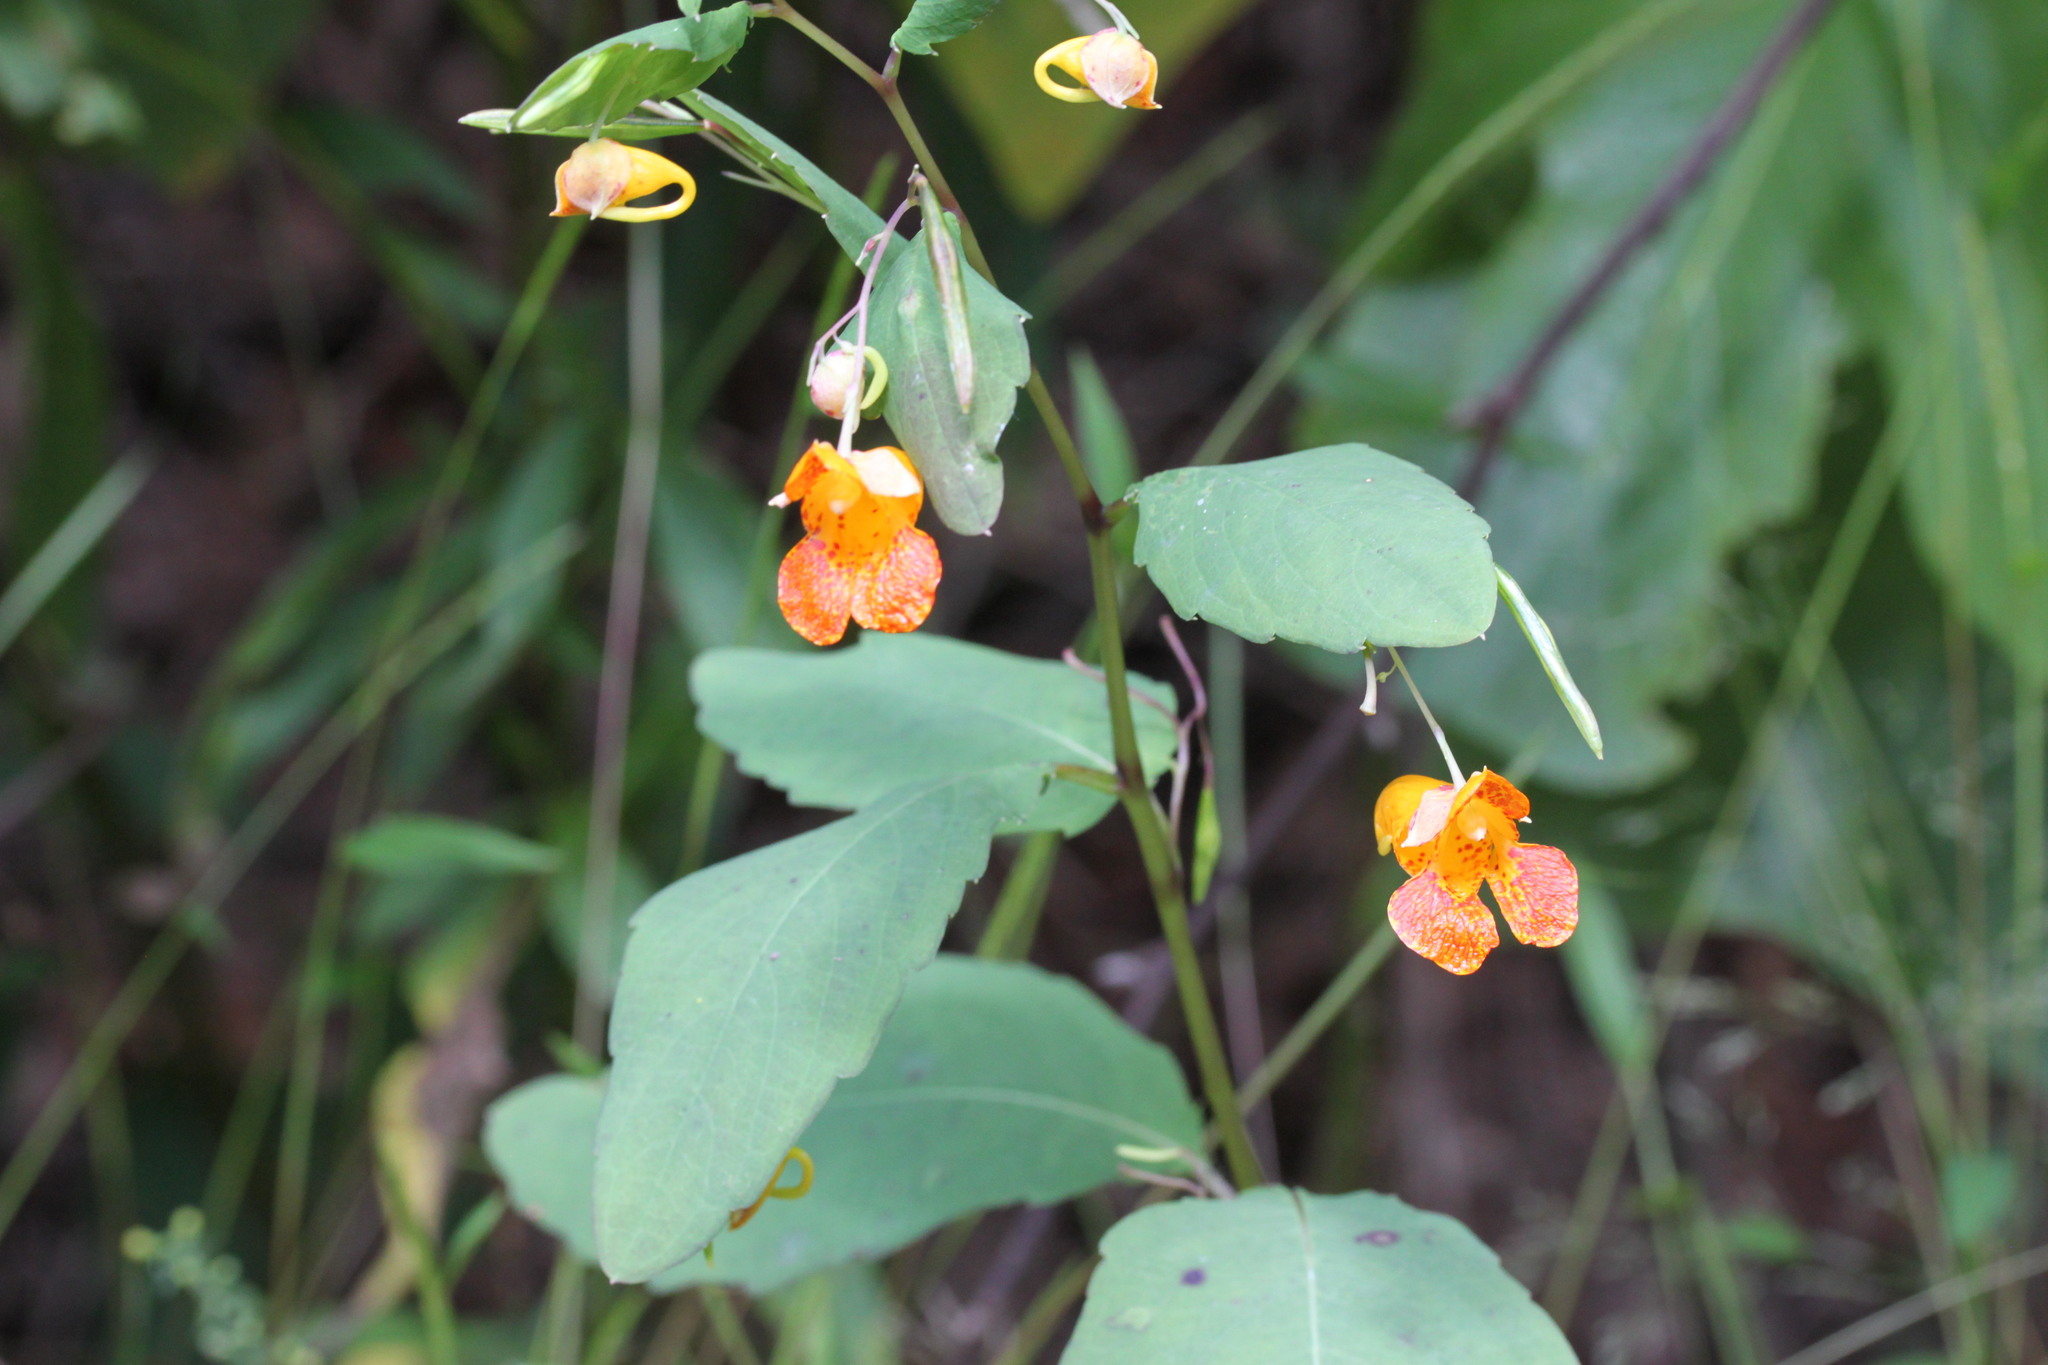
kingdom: Plantae
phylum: Tracheophyta
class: Magnoliopsida
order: Ericales
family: Balsaminaceae
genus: Impatiens
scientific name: Impatiens capensis
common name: Orange balsam
